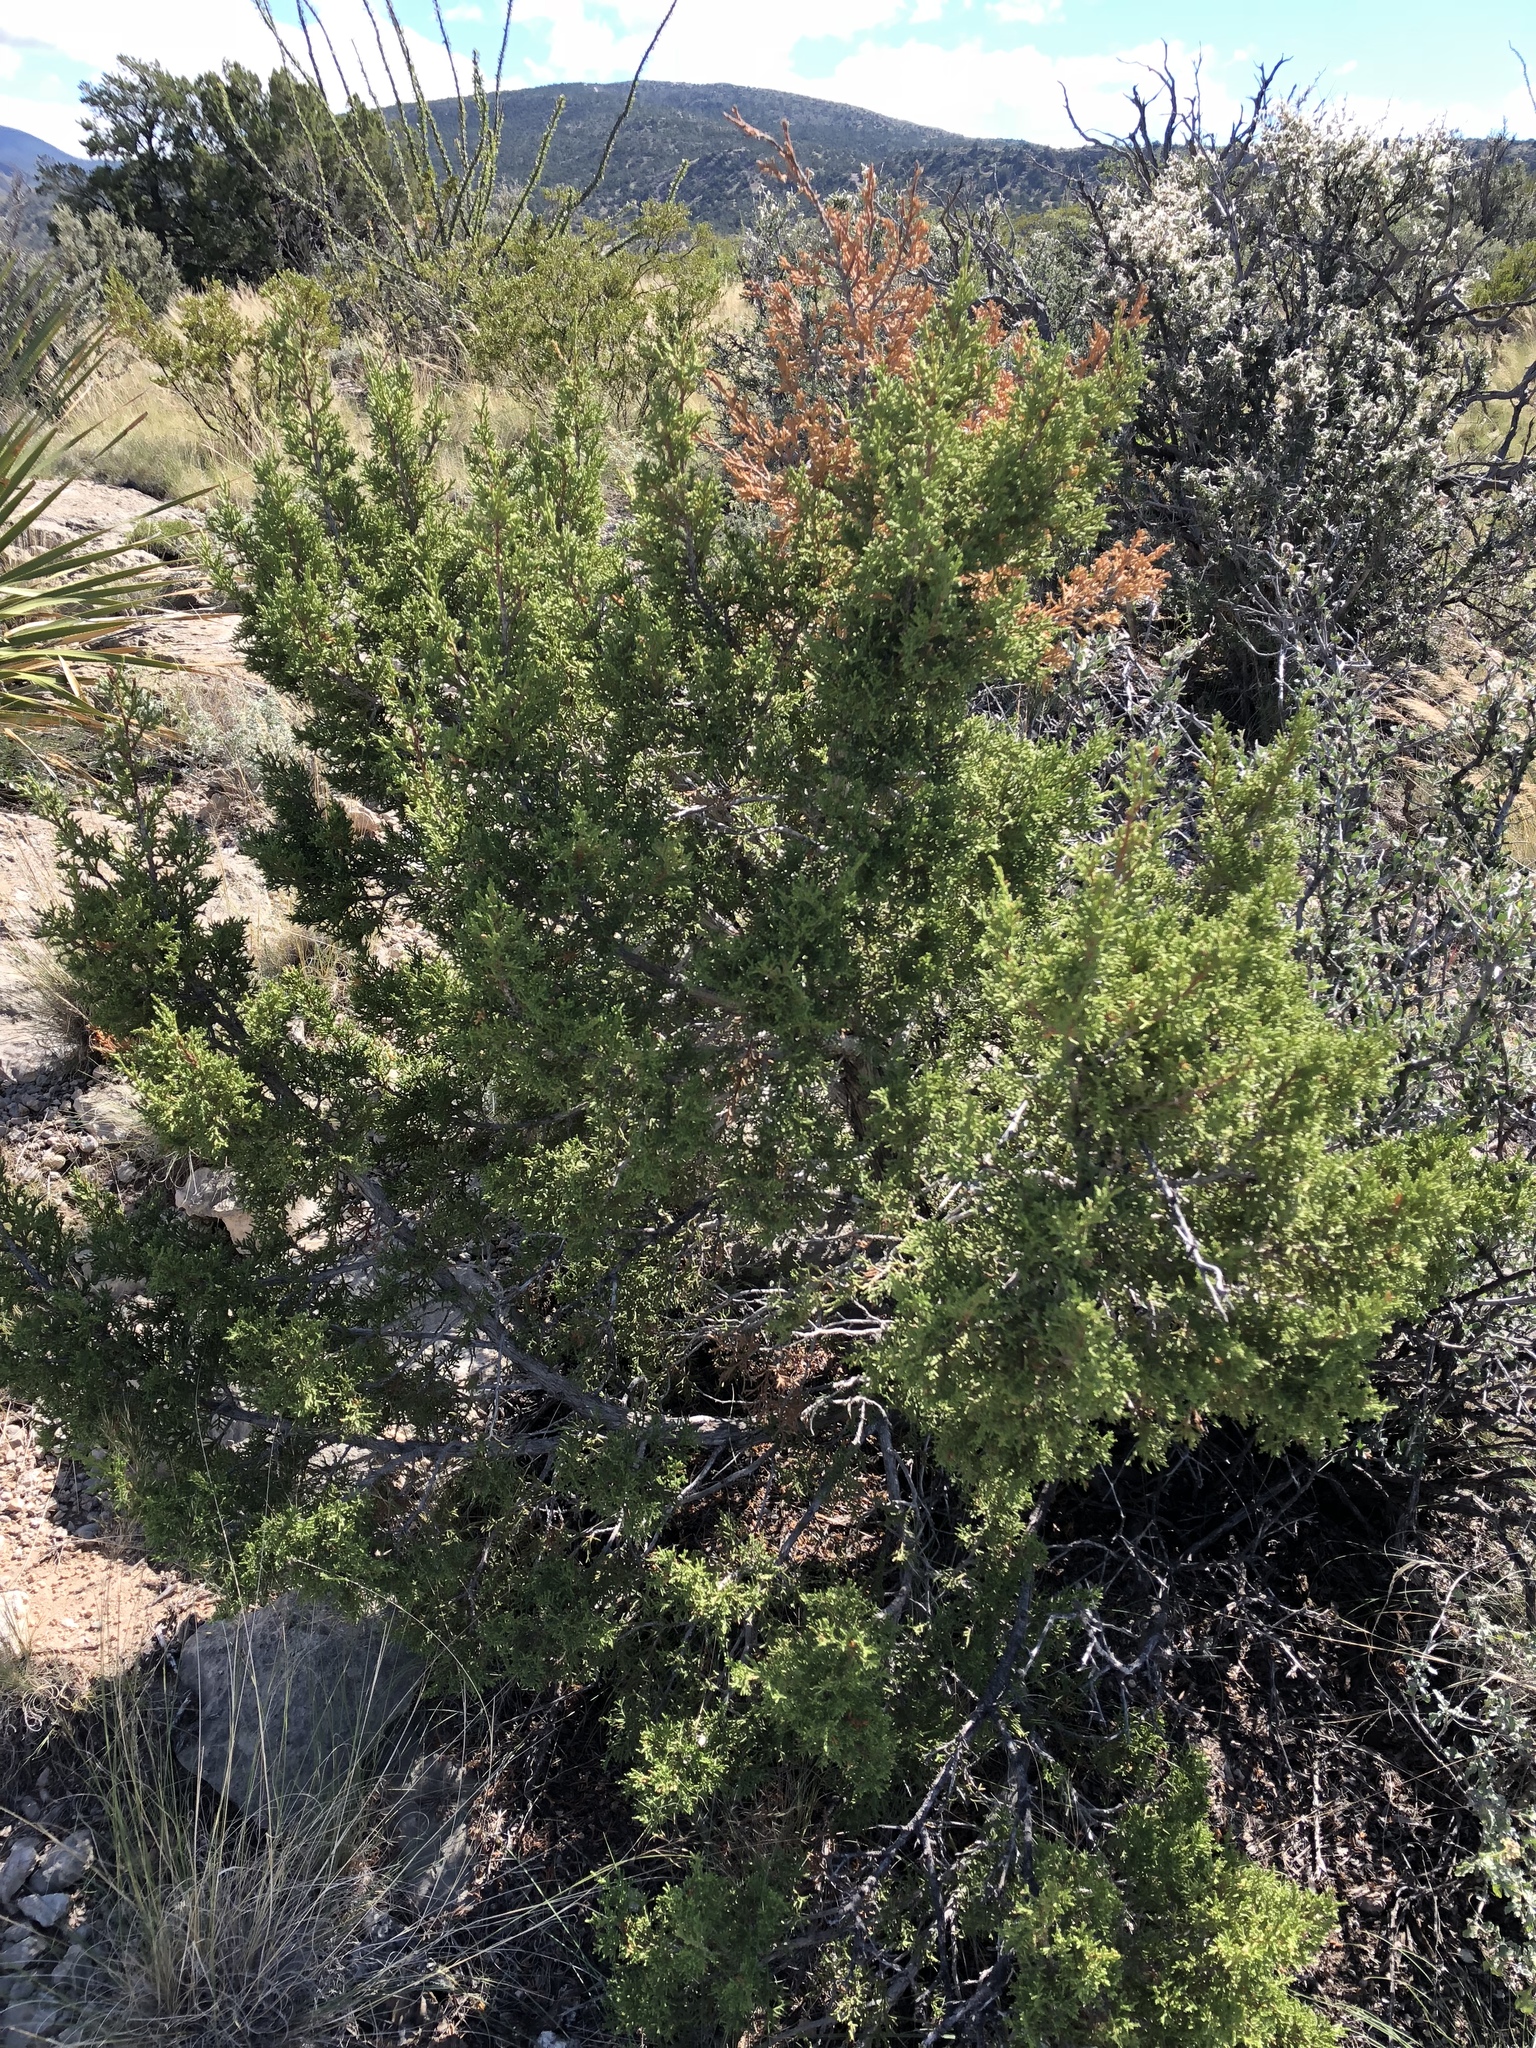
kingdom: Plantae
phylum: Tracheophyta
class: Pinopsida
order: Pinales
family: Cupressaceae
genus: Juniperus
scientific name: Juniperus monosperma
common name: One-seed juniper
